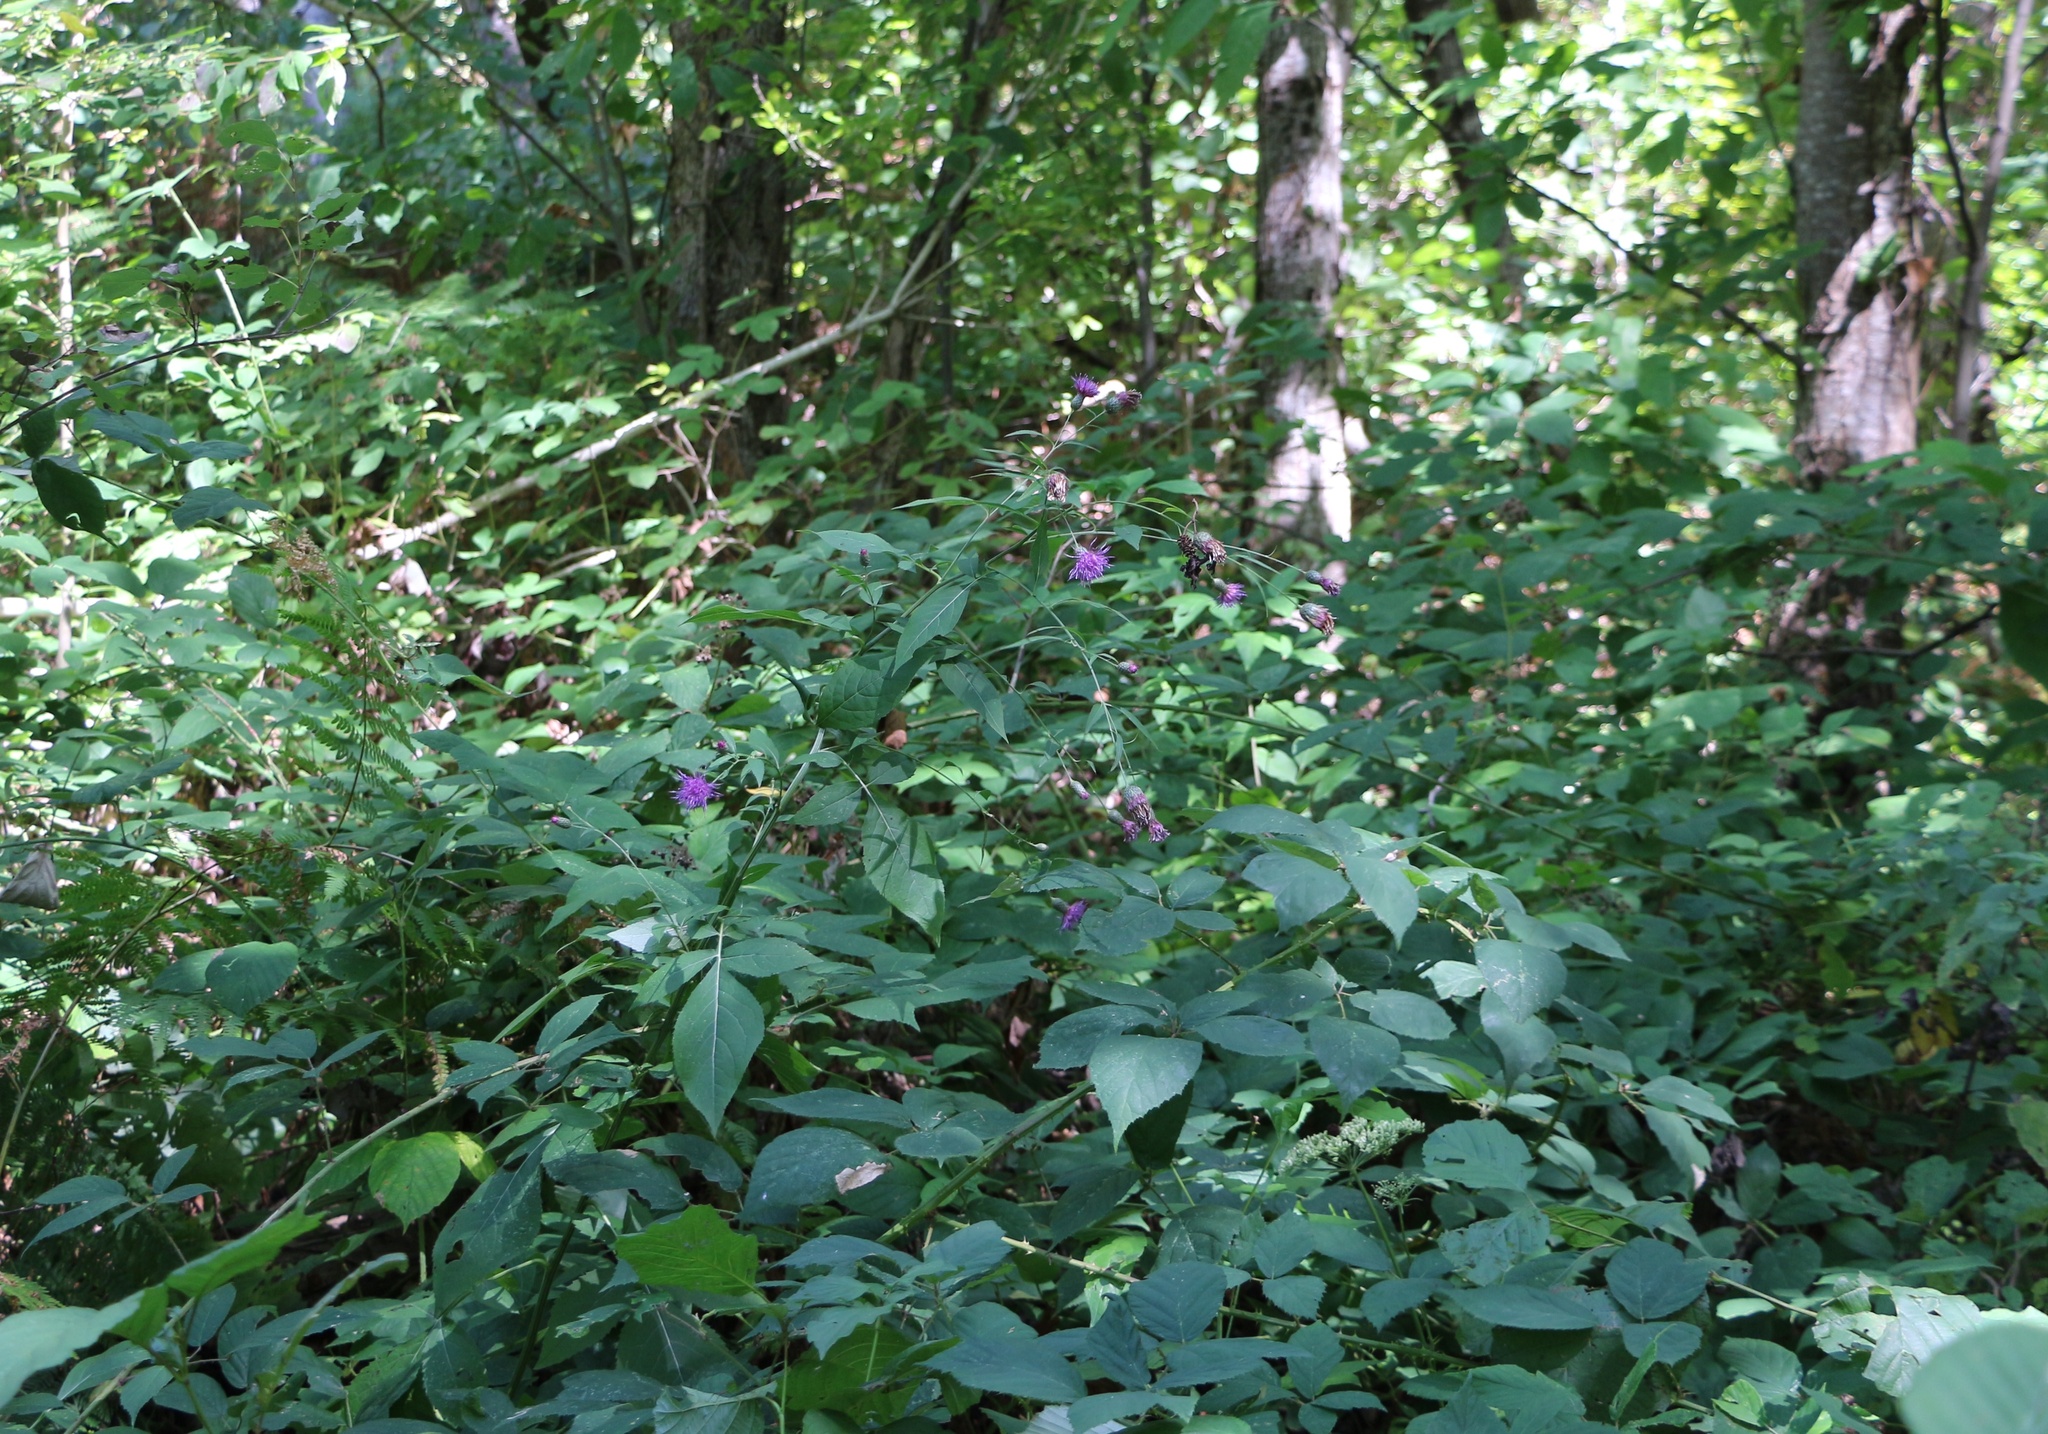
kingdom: Plantae
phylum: Tracheophyta
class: Magnoliopsida
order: Asterales
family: Asteraceae
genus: Klasea
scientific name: Klasea quinquefolia
